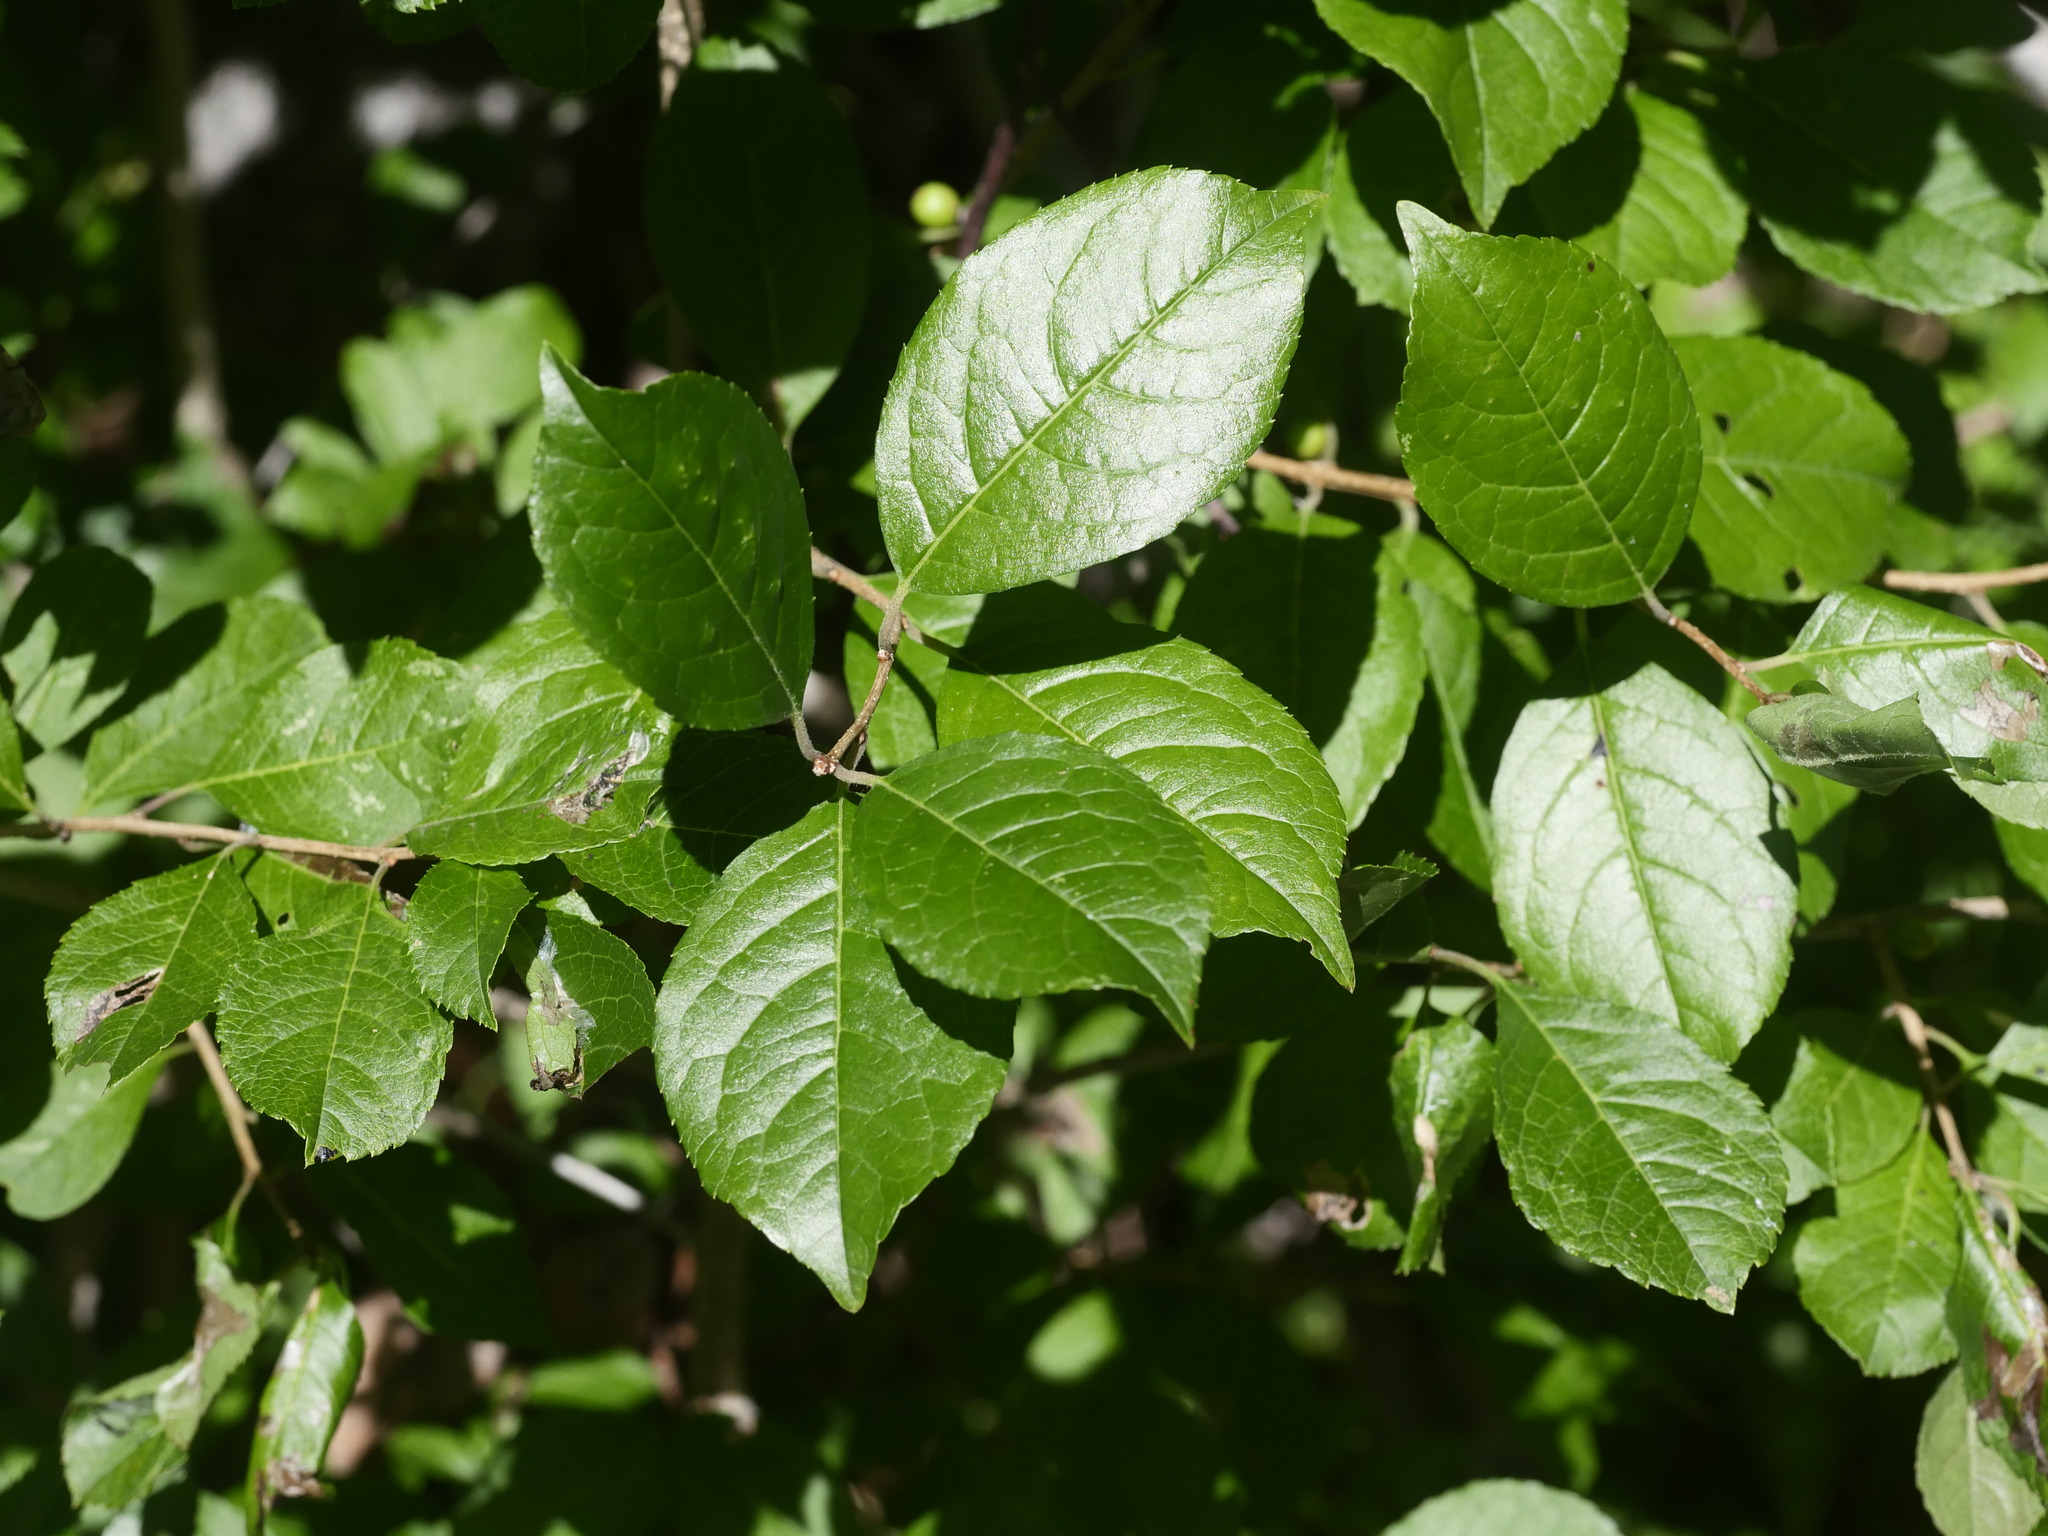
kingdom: Plantae
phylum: Tracheophyta
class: Magnoliopsida
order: Aquifoliales
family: Aquifoliaceae
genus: Ilex
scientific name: Ilex verticillata
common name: Virginia winterberry
